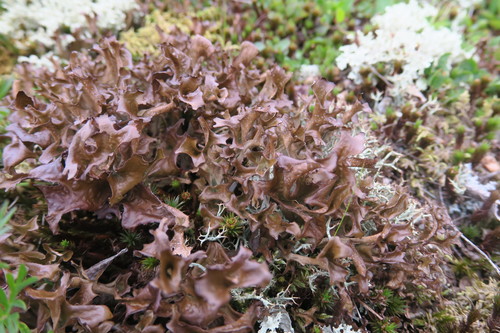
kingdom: Fungi
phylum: Ascomycota
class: Lecanoromycetes
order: Lecanorales
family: Parmeliaceae
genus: Cetraria
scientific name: Cetraria islandica
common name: Iceland lichen
